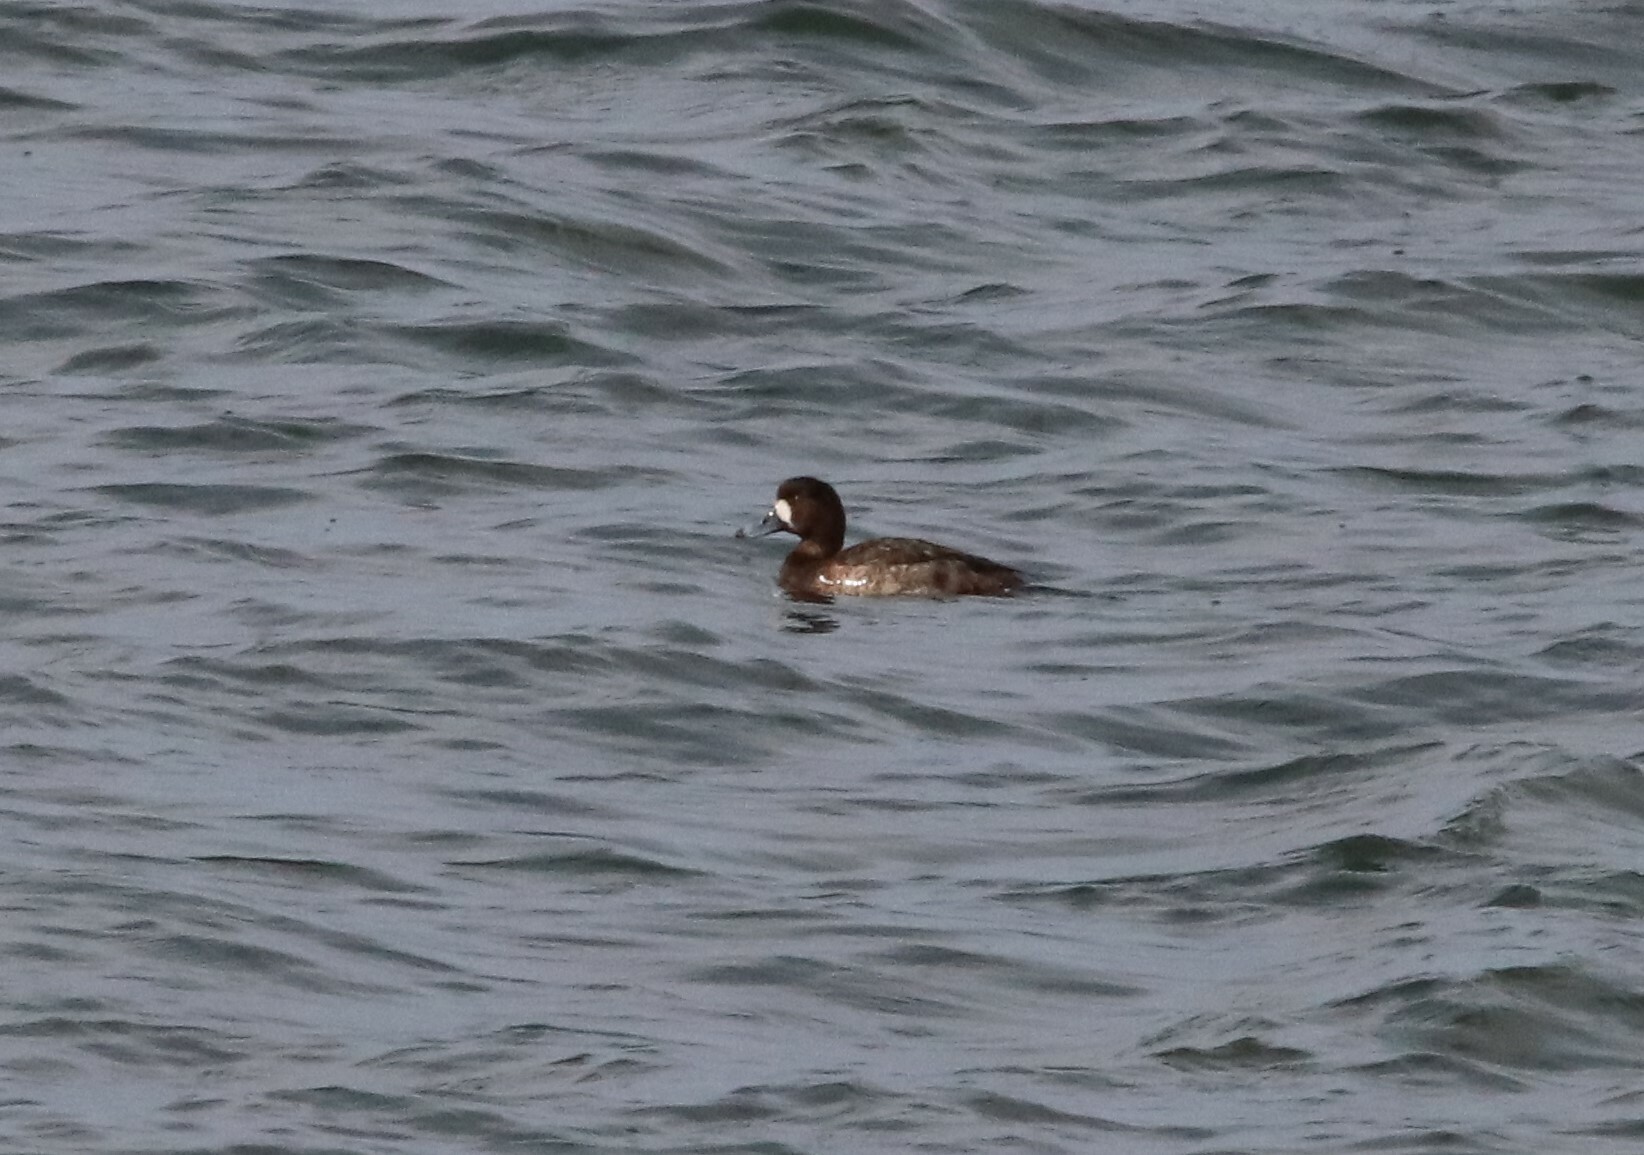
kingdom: Animalia
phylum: Chordata
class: Aves
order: Anseriformes
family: Anatidae
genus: Aythya
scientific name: Aythya marila
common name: Greater scaup
